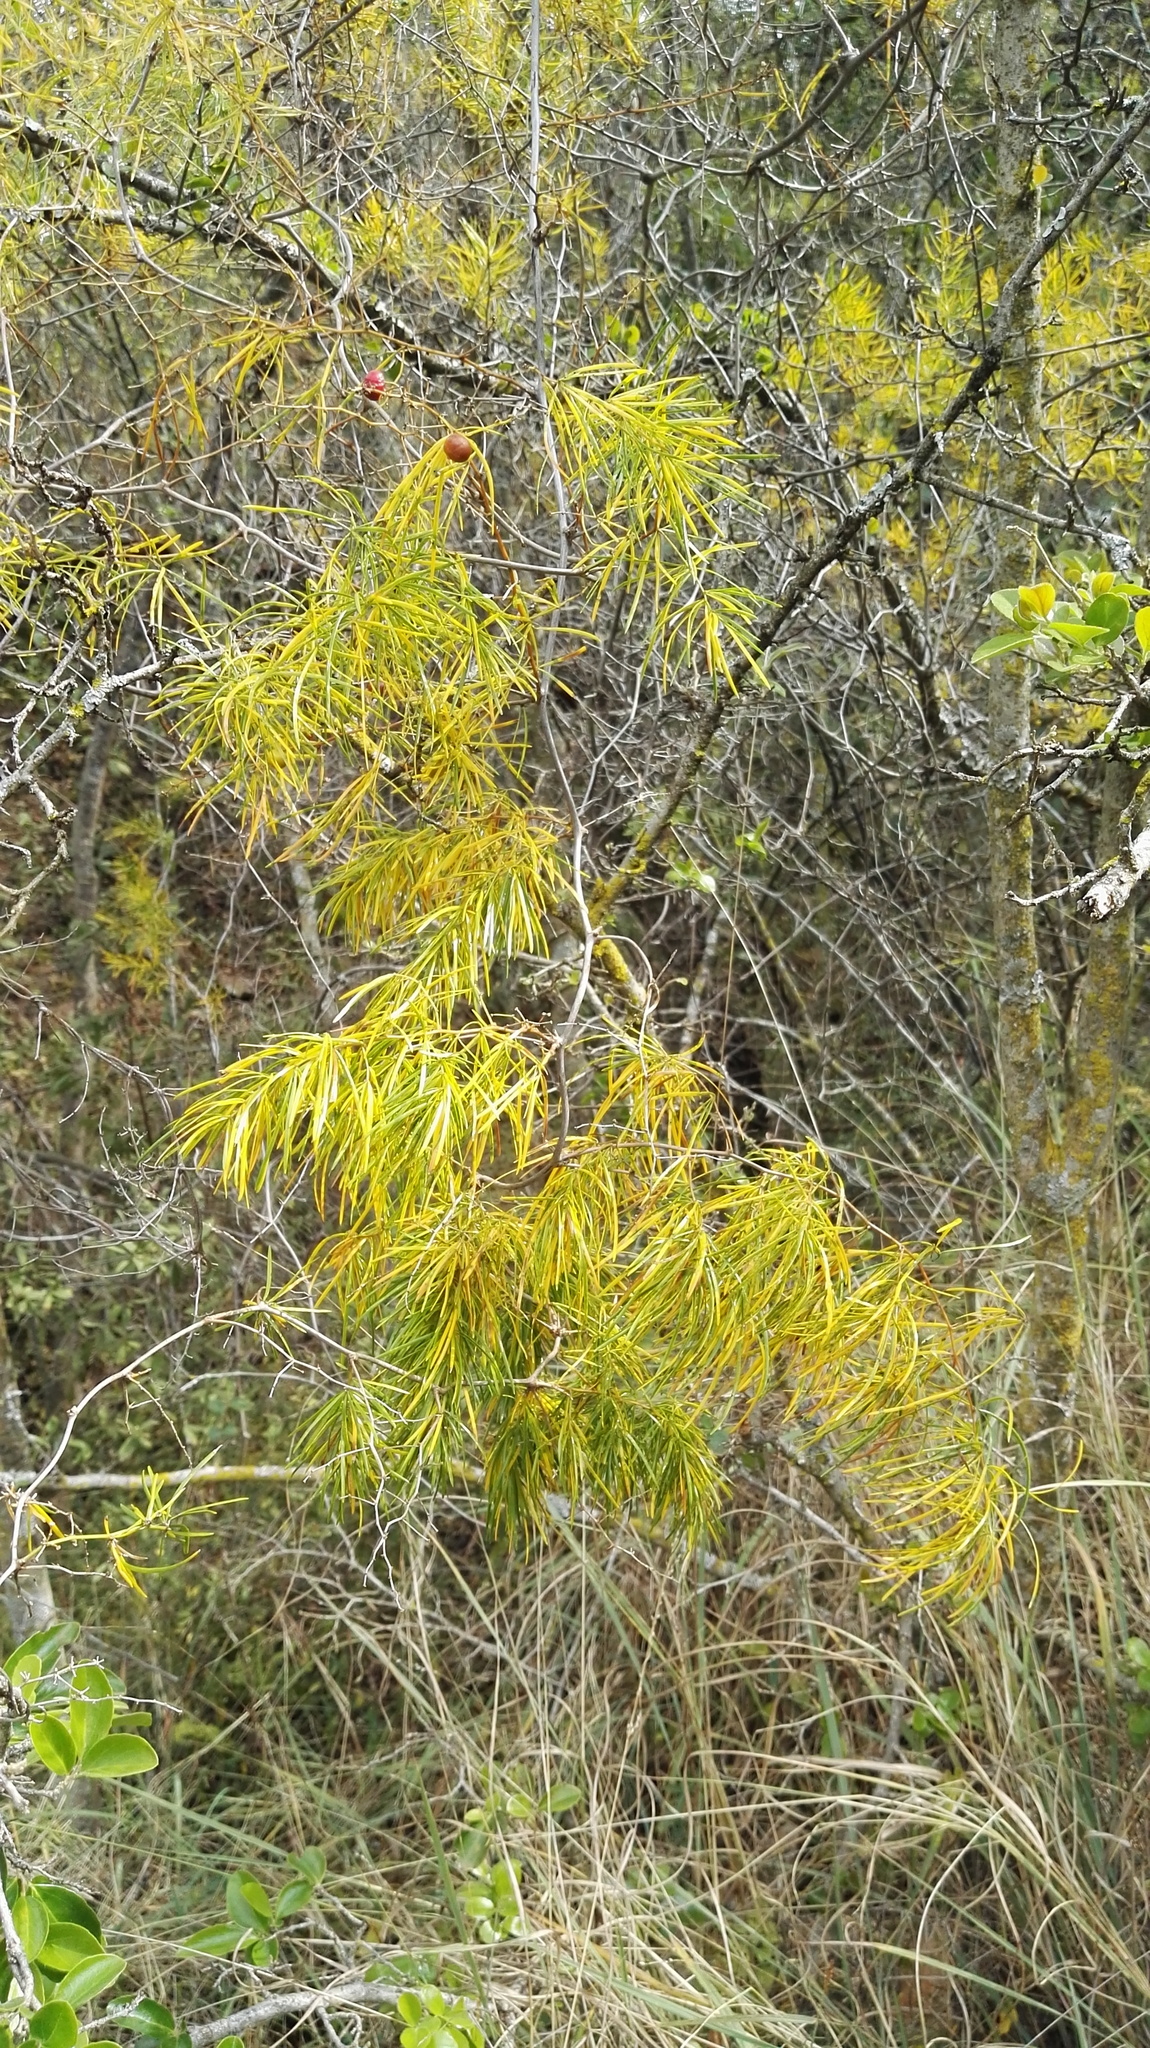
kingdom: Plantae
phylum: Tracheophyta
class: Liliopsida
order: Asparagales
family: Asparagaceae
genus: Asparagus
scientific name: Asparagus angusticladus
